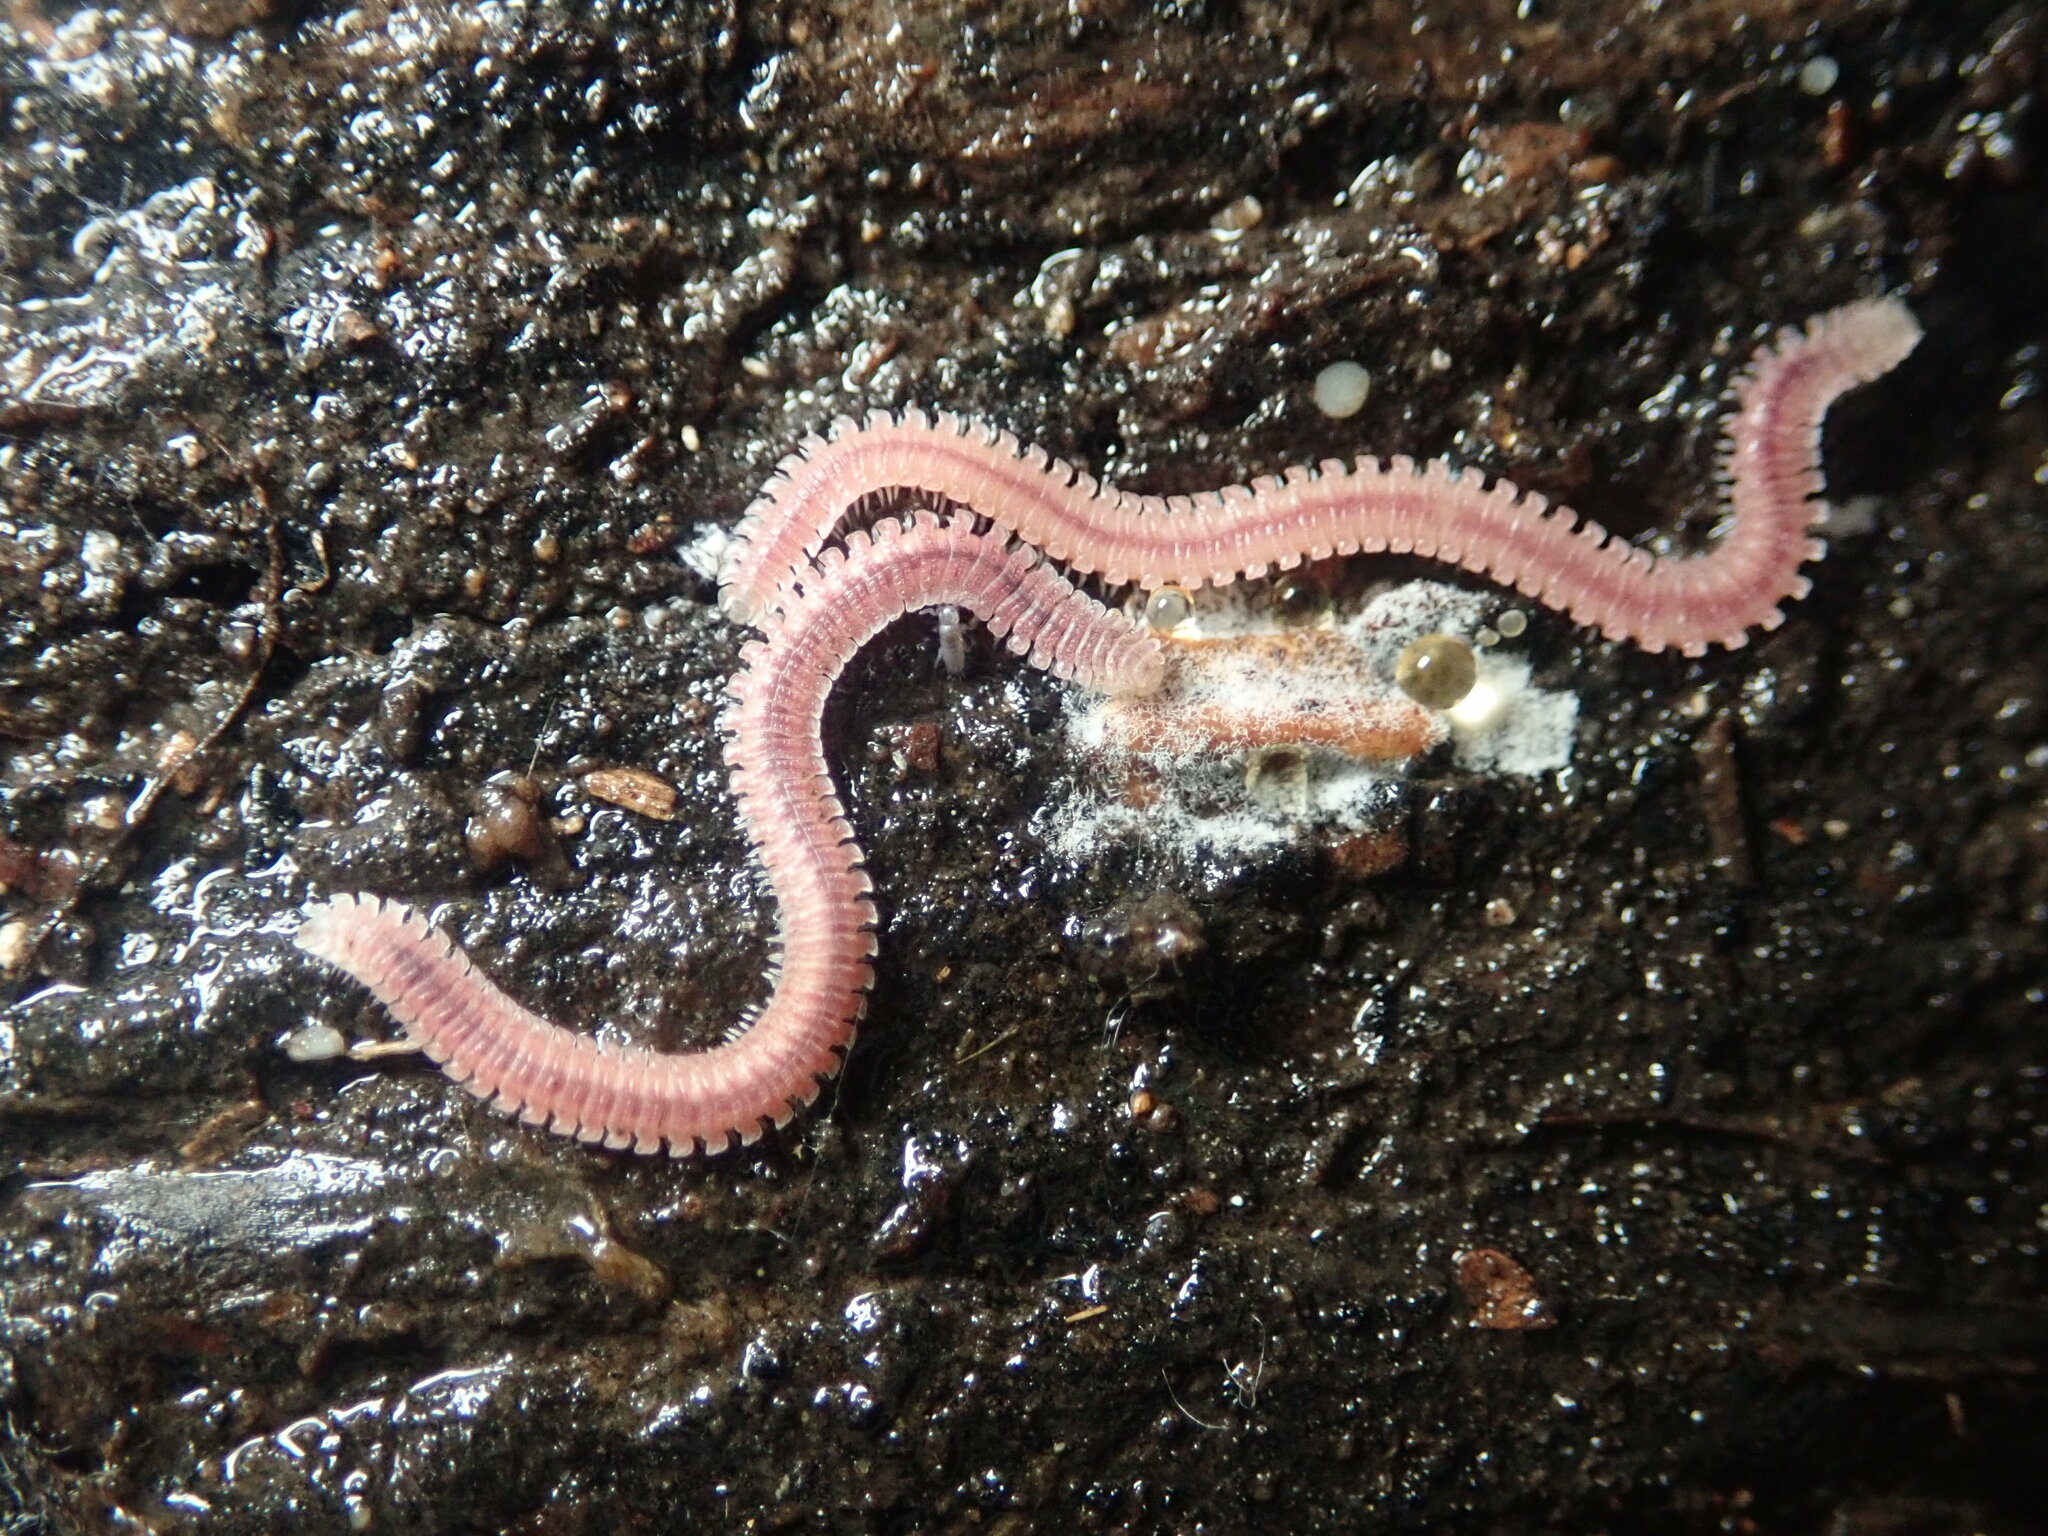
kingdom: Animalia
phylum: Arthropoda
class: Diplopoda
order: Platydesmida
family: Andrognathidae
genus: Gosodesmus
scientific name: Gosodesmus claremontus
